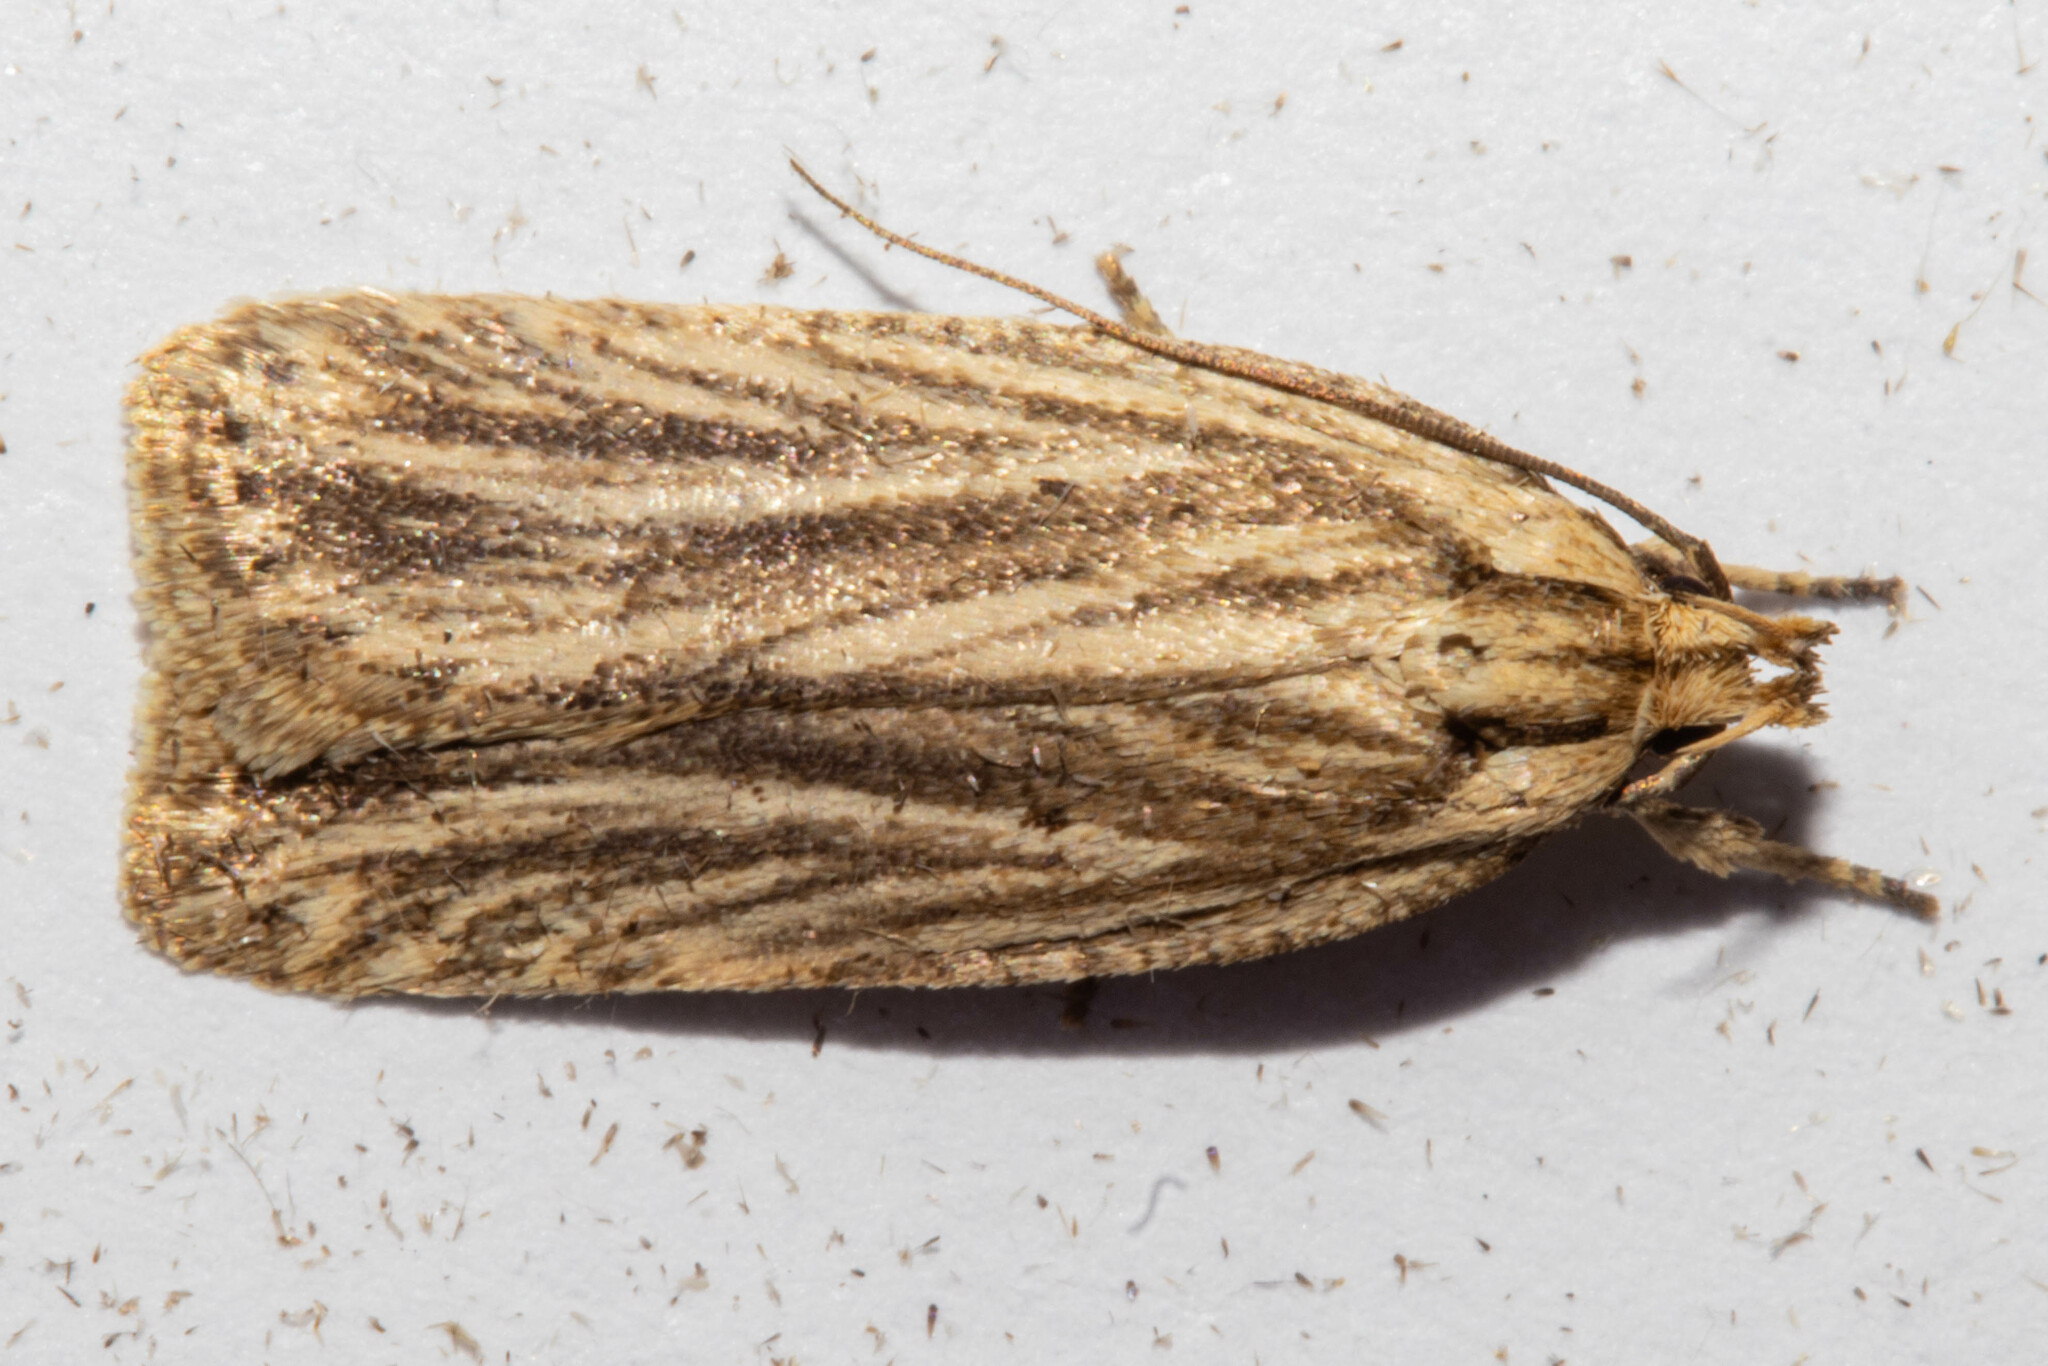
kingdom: Animalia
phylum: Arthropoda
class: Insecta
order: Lepidoptera
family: Depressariidae
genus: Agonopterix
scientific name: Agonopterix
